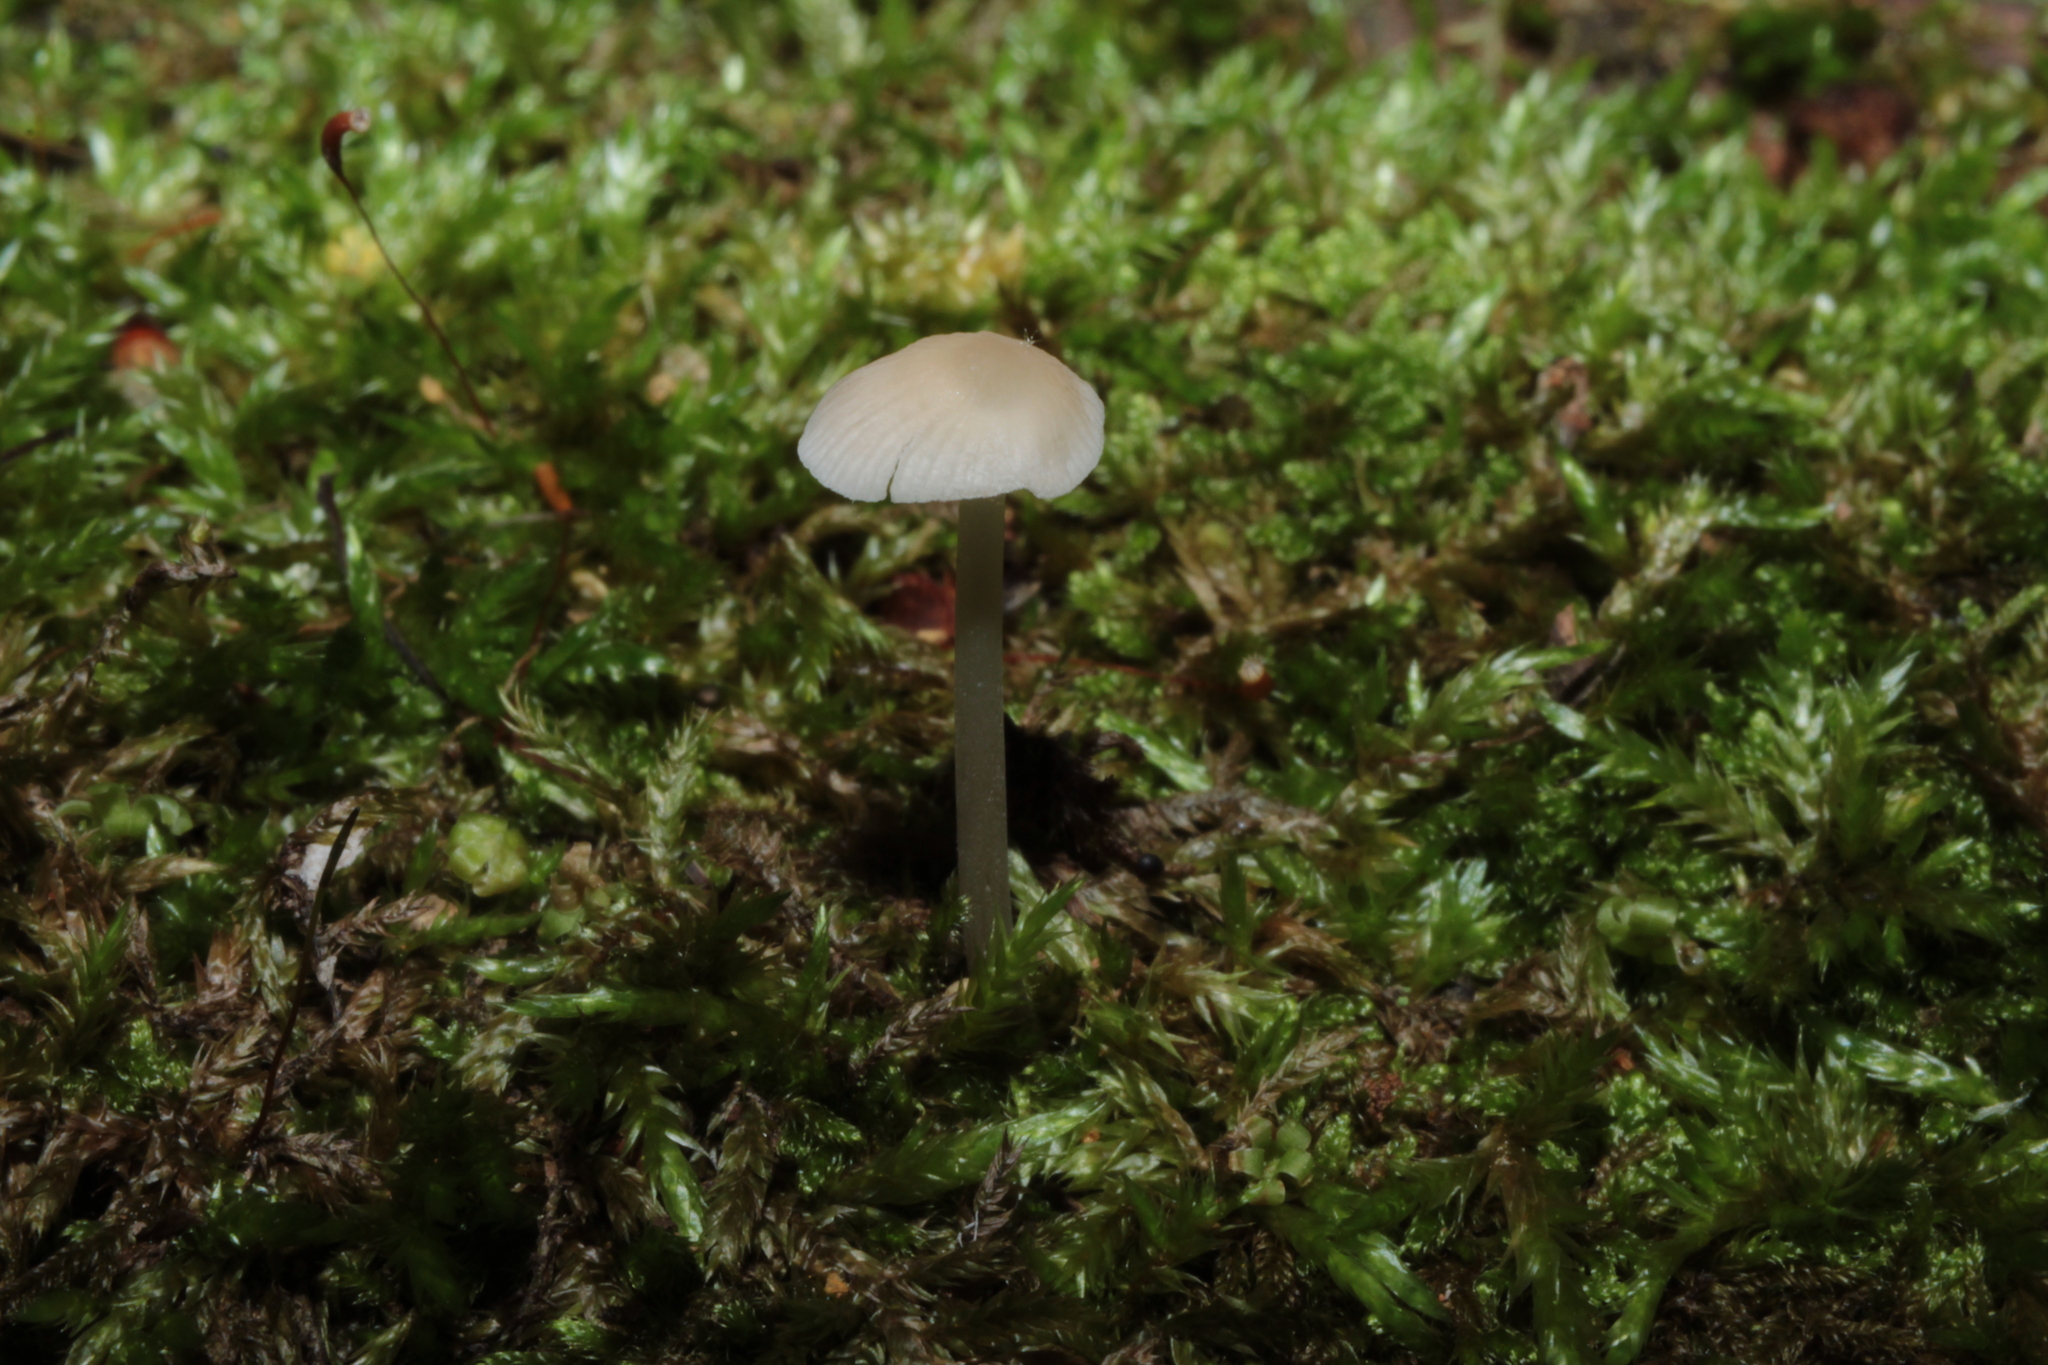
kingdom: Fungi
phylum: Basidiomycota
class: Agaricomycetes
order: Agaricales
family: Mycenaceae
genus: Mycena
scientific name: Mycena galericulata
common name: Bonnet mycena
